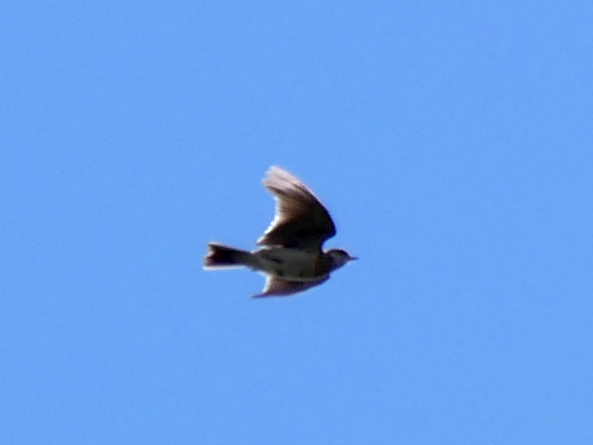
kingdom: Animalia
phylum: Chordata
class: Aves
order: Passeriformes
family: Alaudidae
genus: Alauda
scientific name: Alauda arvensis
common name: Eurasian skylark
